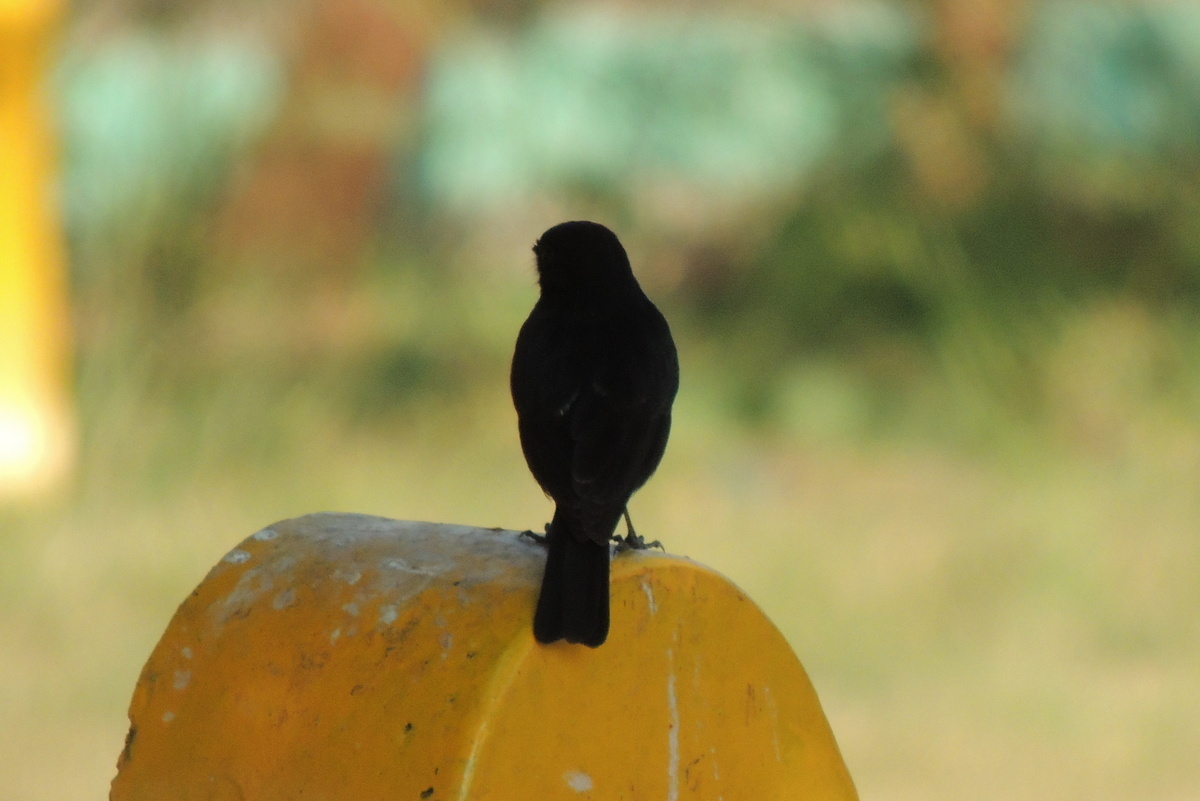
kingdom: Animalia
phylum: Chordata
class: Aves
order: Passeriformes
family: Muscicapidae
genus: Saxicola
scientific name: Saxicola caprata
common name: Pied bush chat
